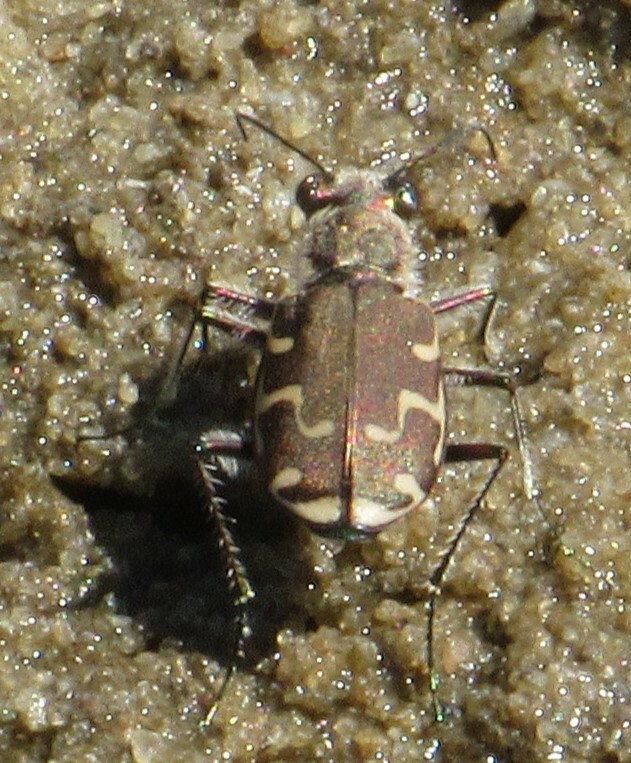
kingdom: Animalia
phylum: Arthropoda
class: Insecta
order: Coleoptera
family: Carabidae
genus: Cicindela
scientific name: Cicindela repanda
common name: Bronzed tiger beetle
